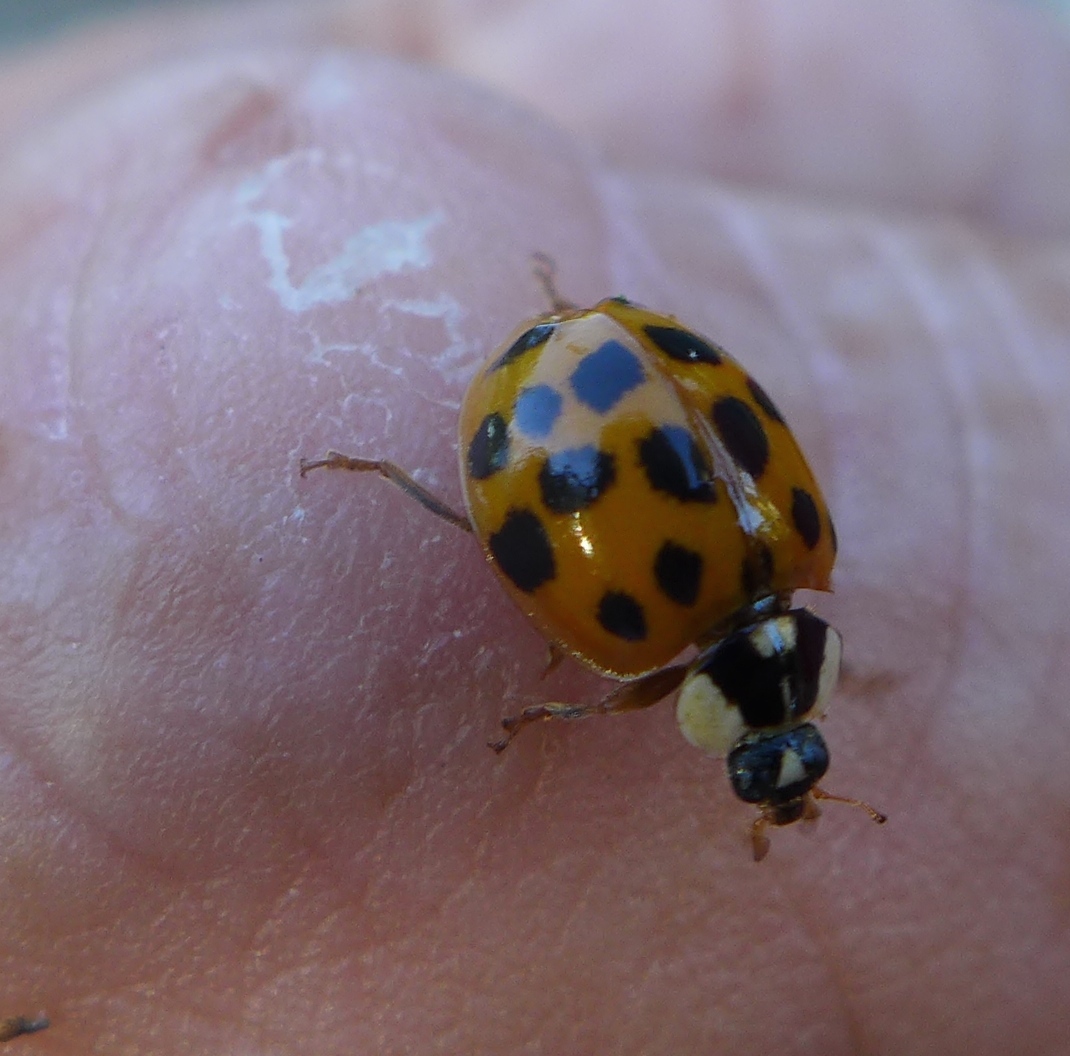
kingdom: Animalia
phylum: Arthropoda
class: Insecta
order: Coleoptera
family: Coccinellidae
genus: Harmonia
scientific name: Harmonia axyridis
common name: Harlequin ladybird
